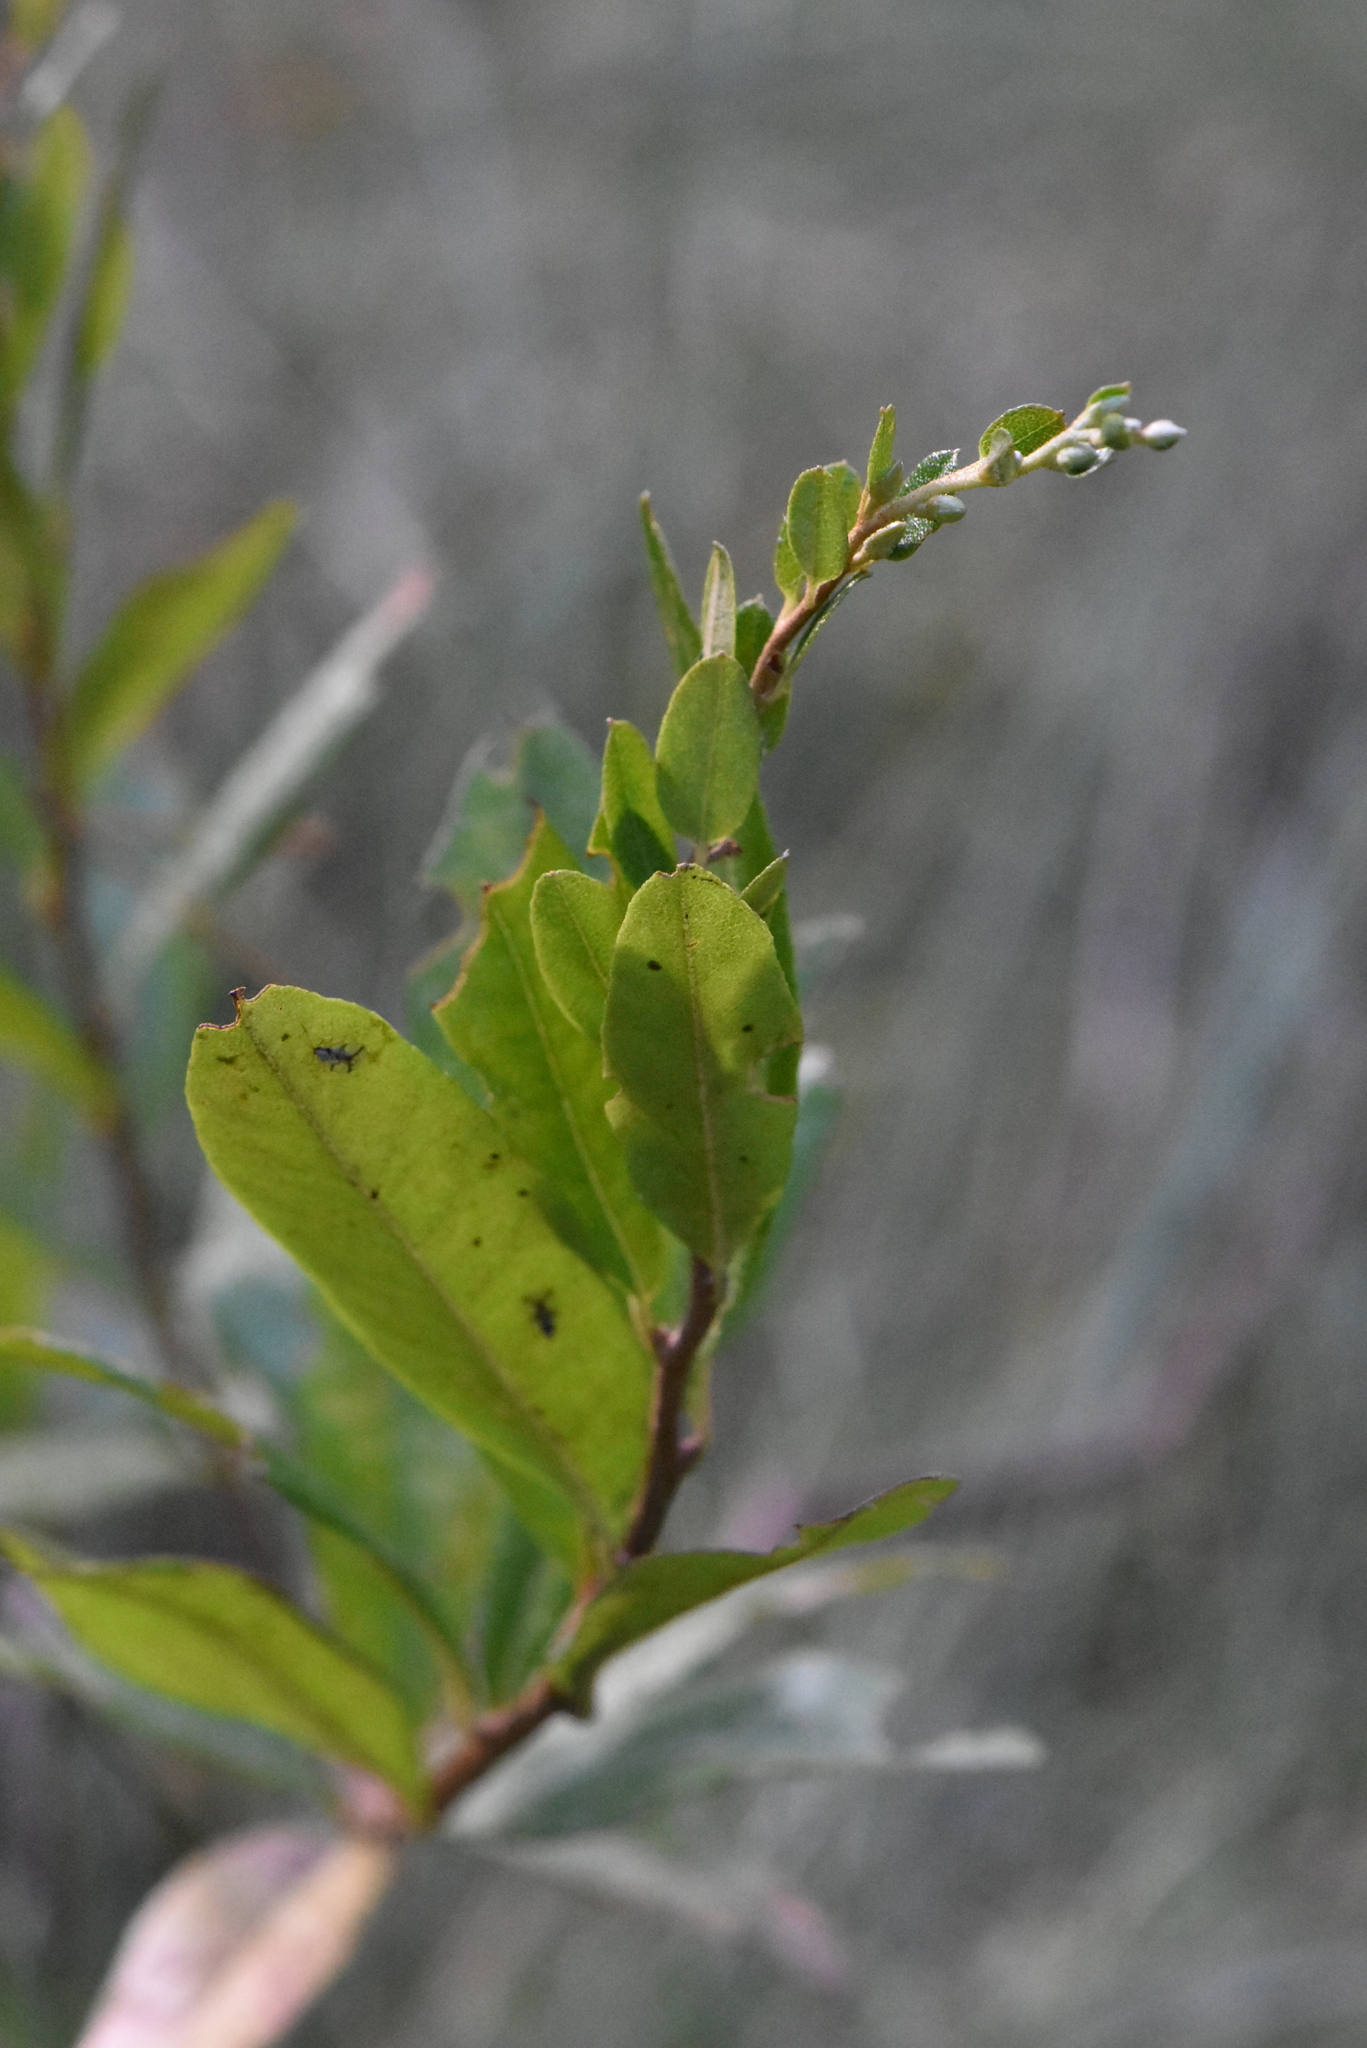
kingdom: Plantae
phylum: Tracheophyta
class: Magnoliopsida
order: Ericales
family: Ericaceae
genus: Chamaedaphne
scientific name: Chamaedaphne calyculata
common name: Leatherleaf
